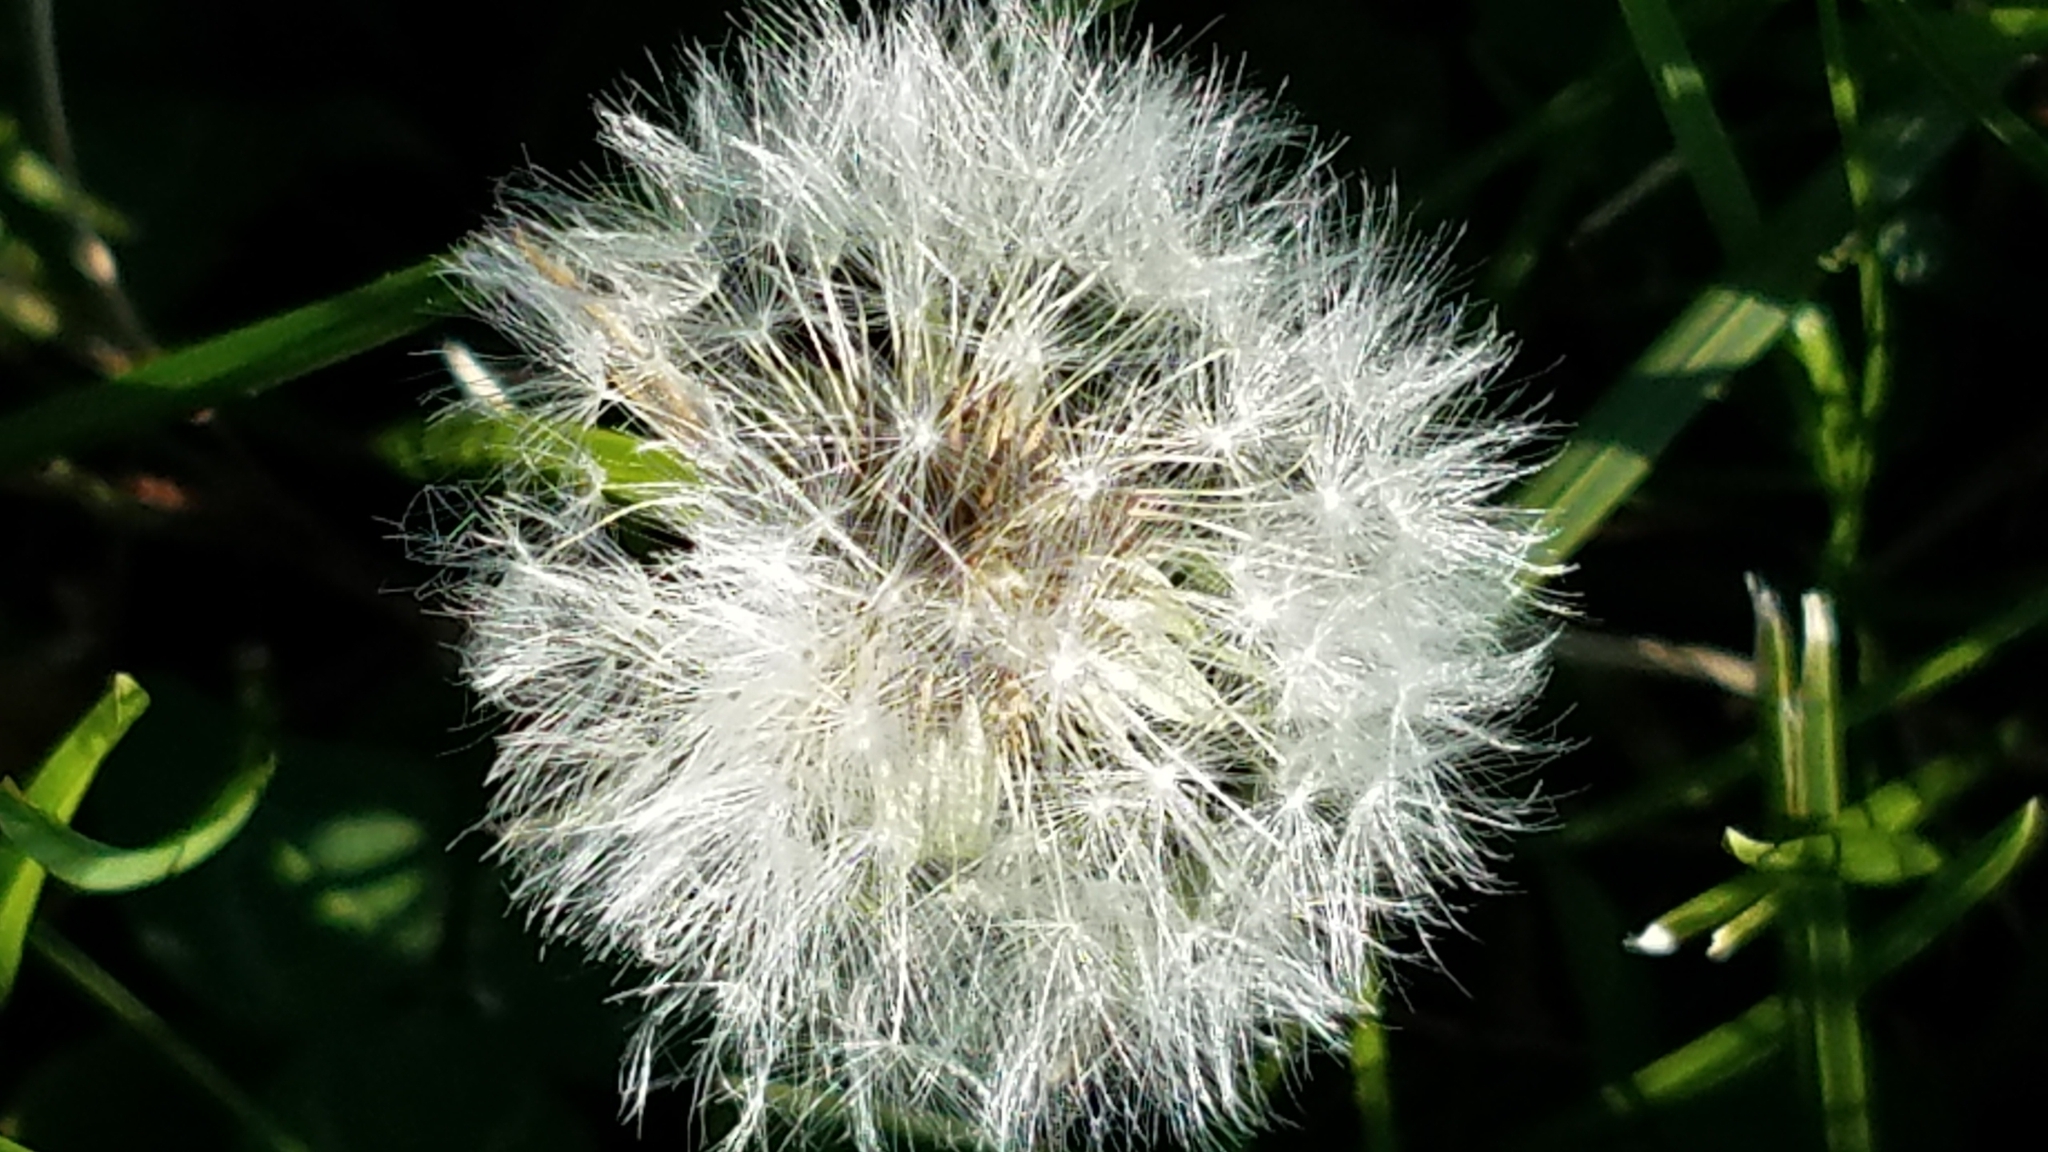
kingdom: Plantae
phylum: Tracheophyta
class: Magnoliopsida
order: Asterales
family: Asteraceae
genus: Taraxacum
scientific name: Taraxacum officinale
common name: Common dandelion
